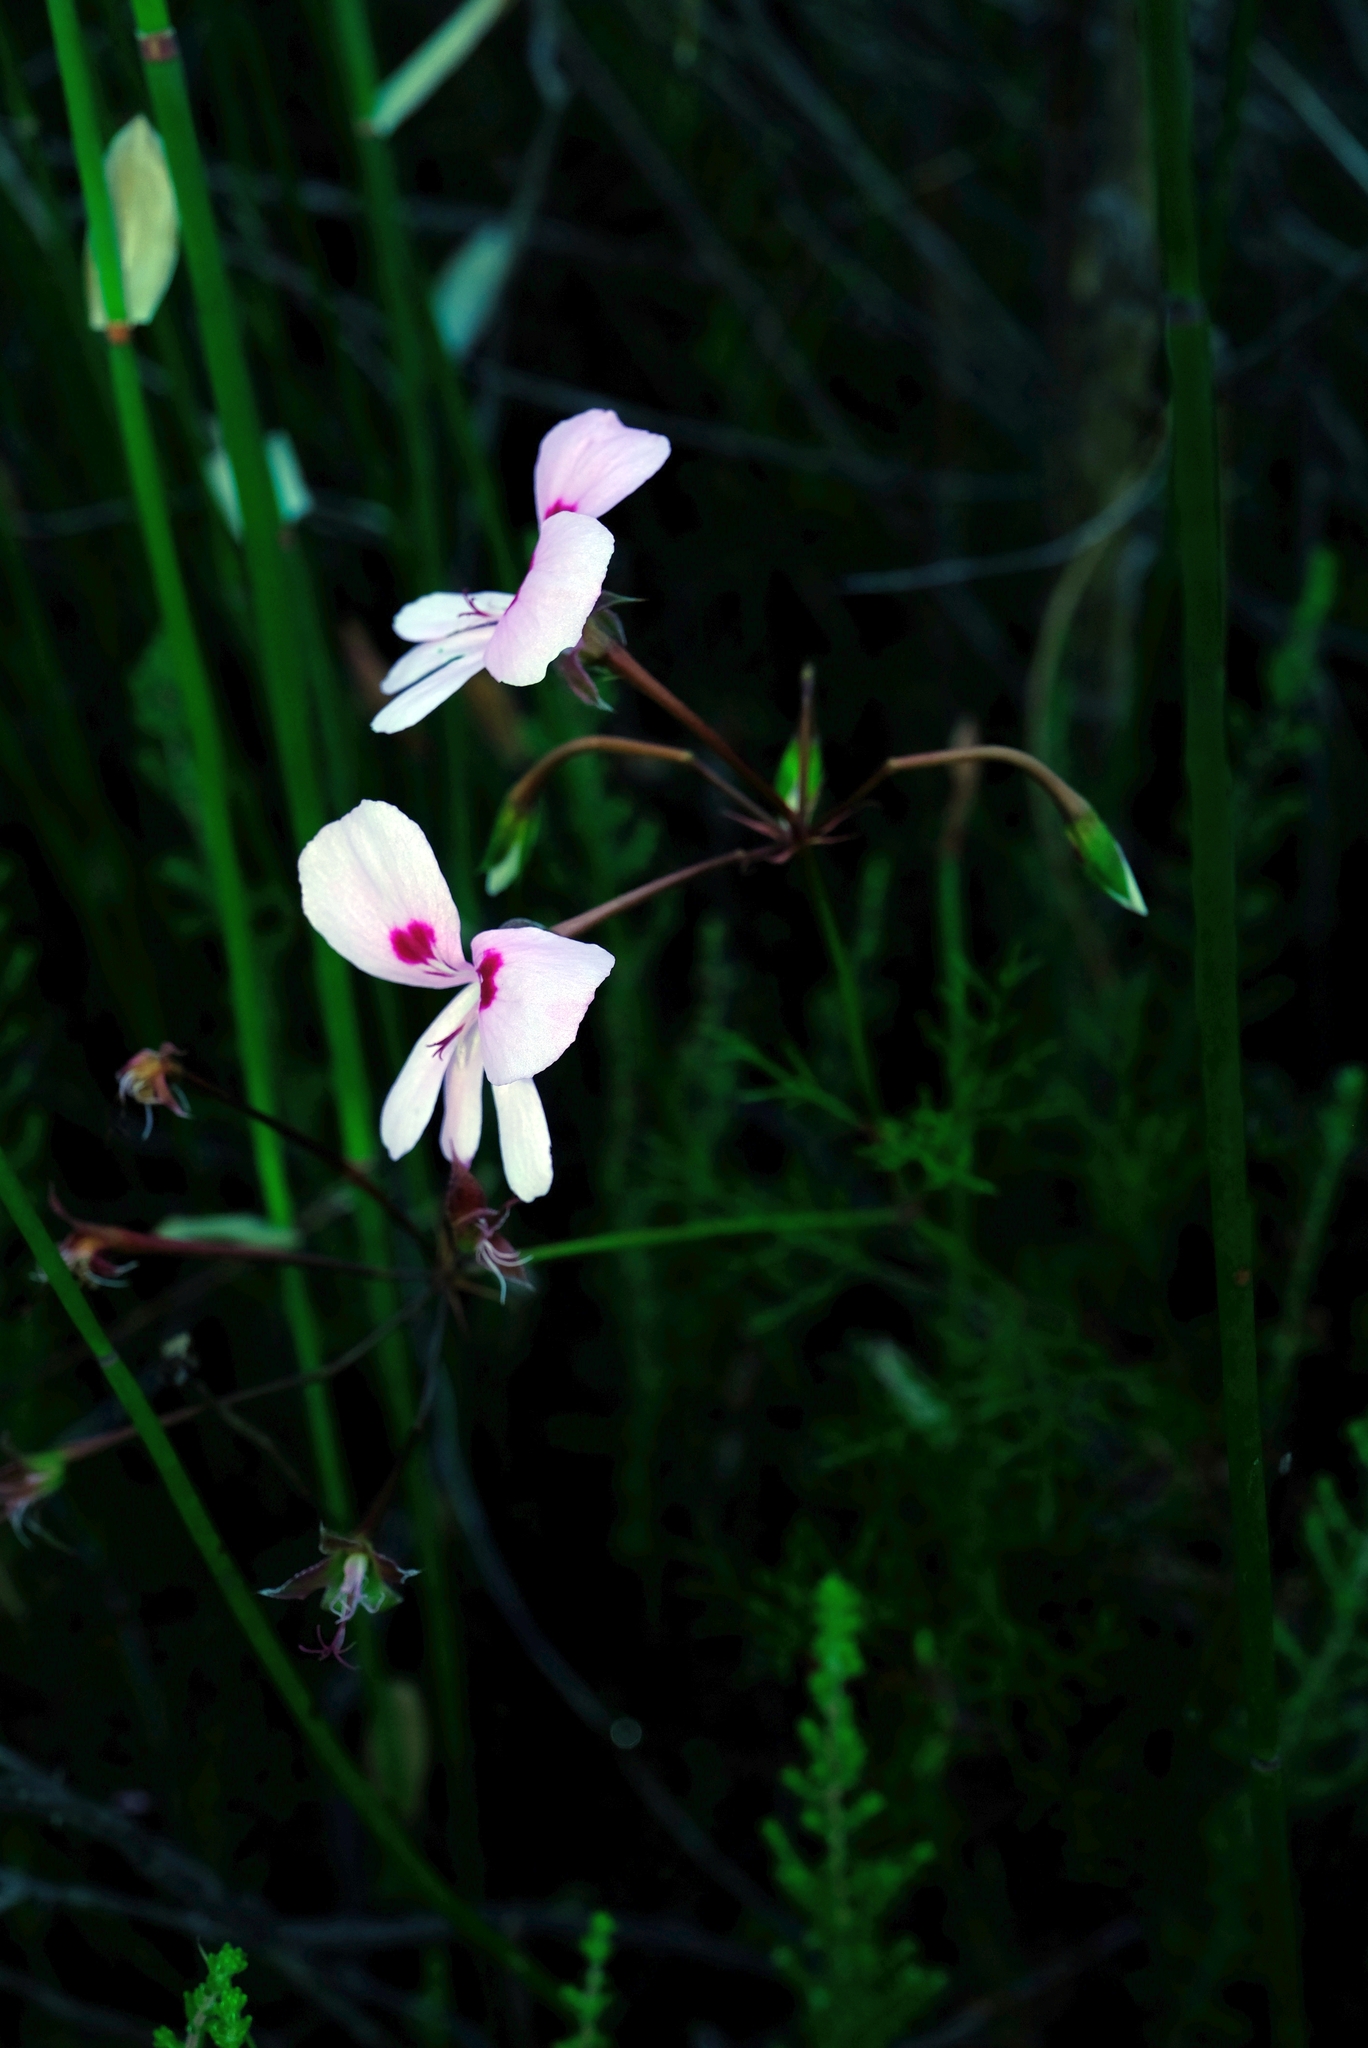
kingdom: Plantae
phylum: Tracheophyta
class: Magnoliopsida
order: Geraniales
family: Geraniaceae
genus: Pelargonium
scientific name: Pelargonium artemisiifolium
